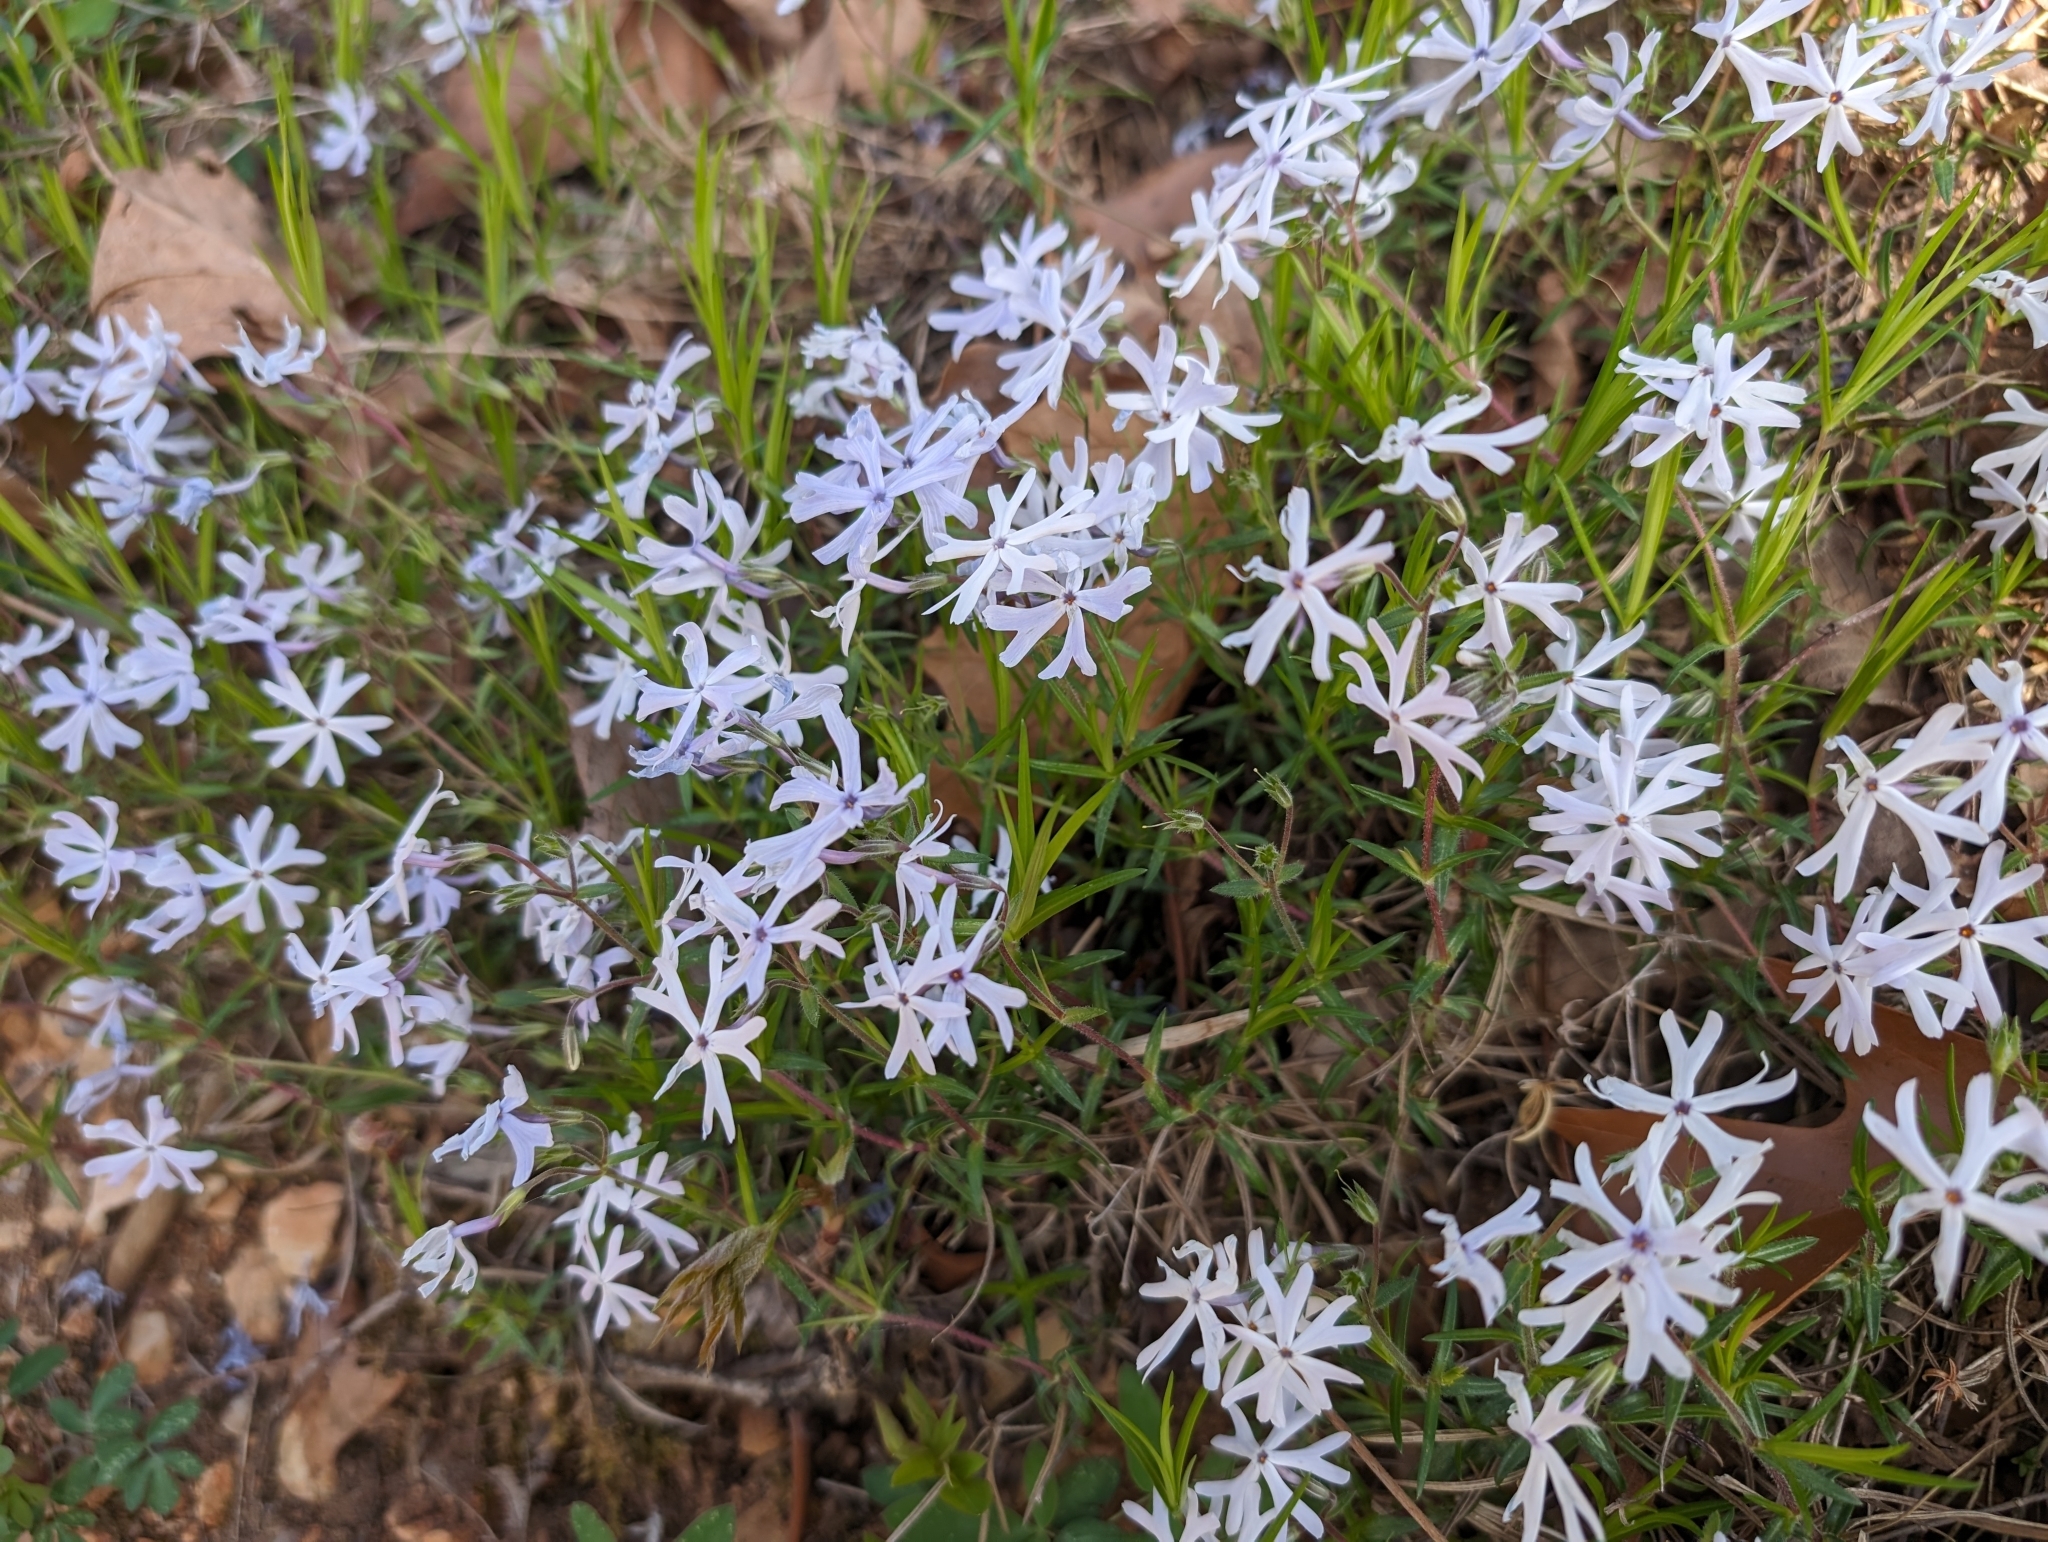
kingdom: Plantae
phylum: Tracheophyta
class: Magnoliopsida
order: Ericales
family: Polemoniaceae
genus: Phlox
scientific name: Phlox bifida
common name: Sand phlox
